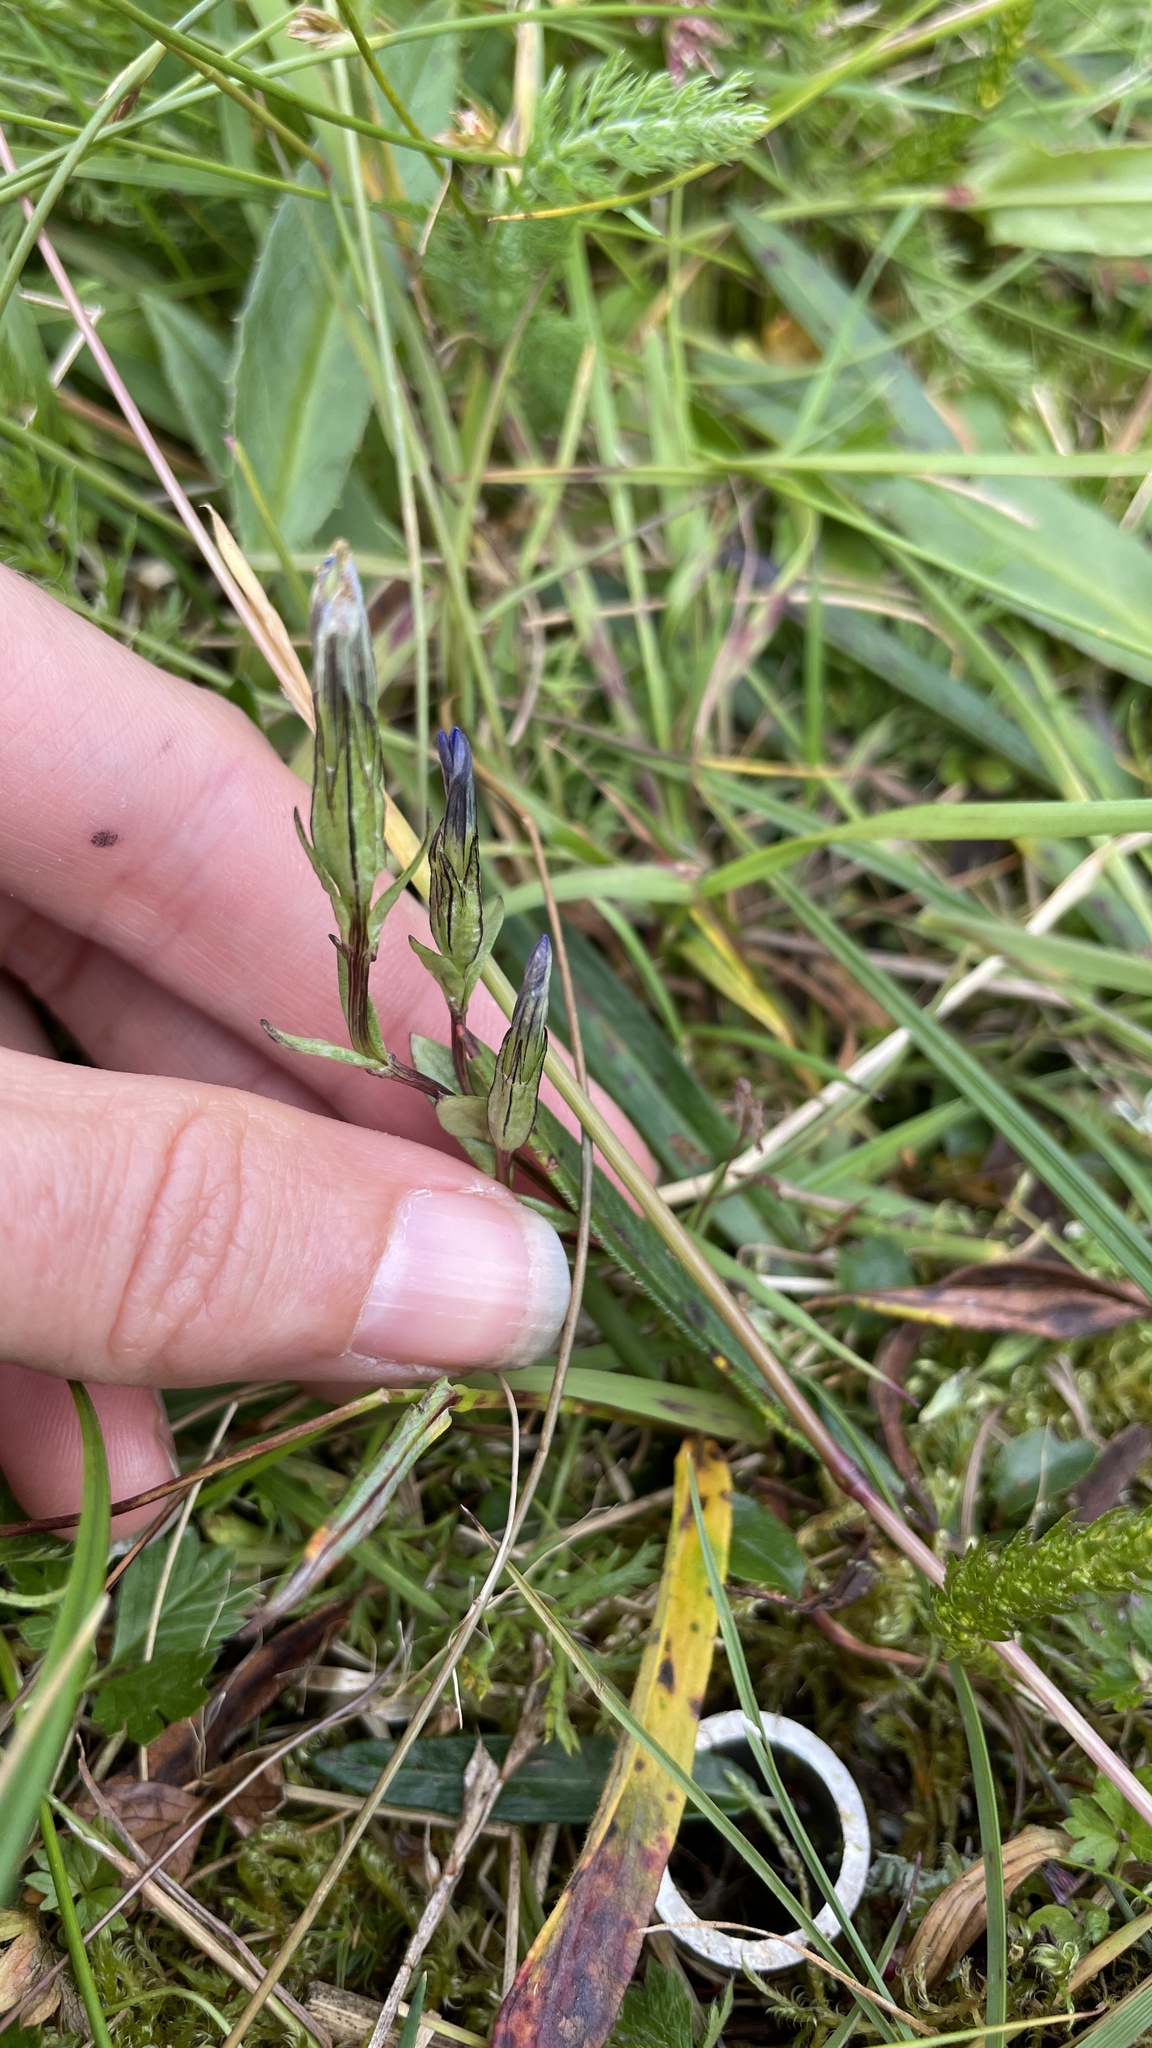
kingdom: Plantae
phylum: Tracheophyta
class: Magnoliopsida
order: Gentianales
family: Gentianaceae
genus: Gentiana
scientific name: Gentiana nivalis
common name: Alpine gentian
